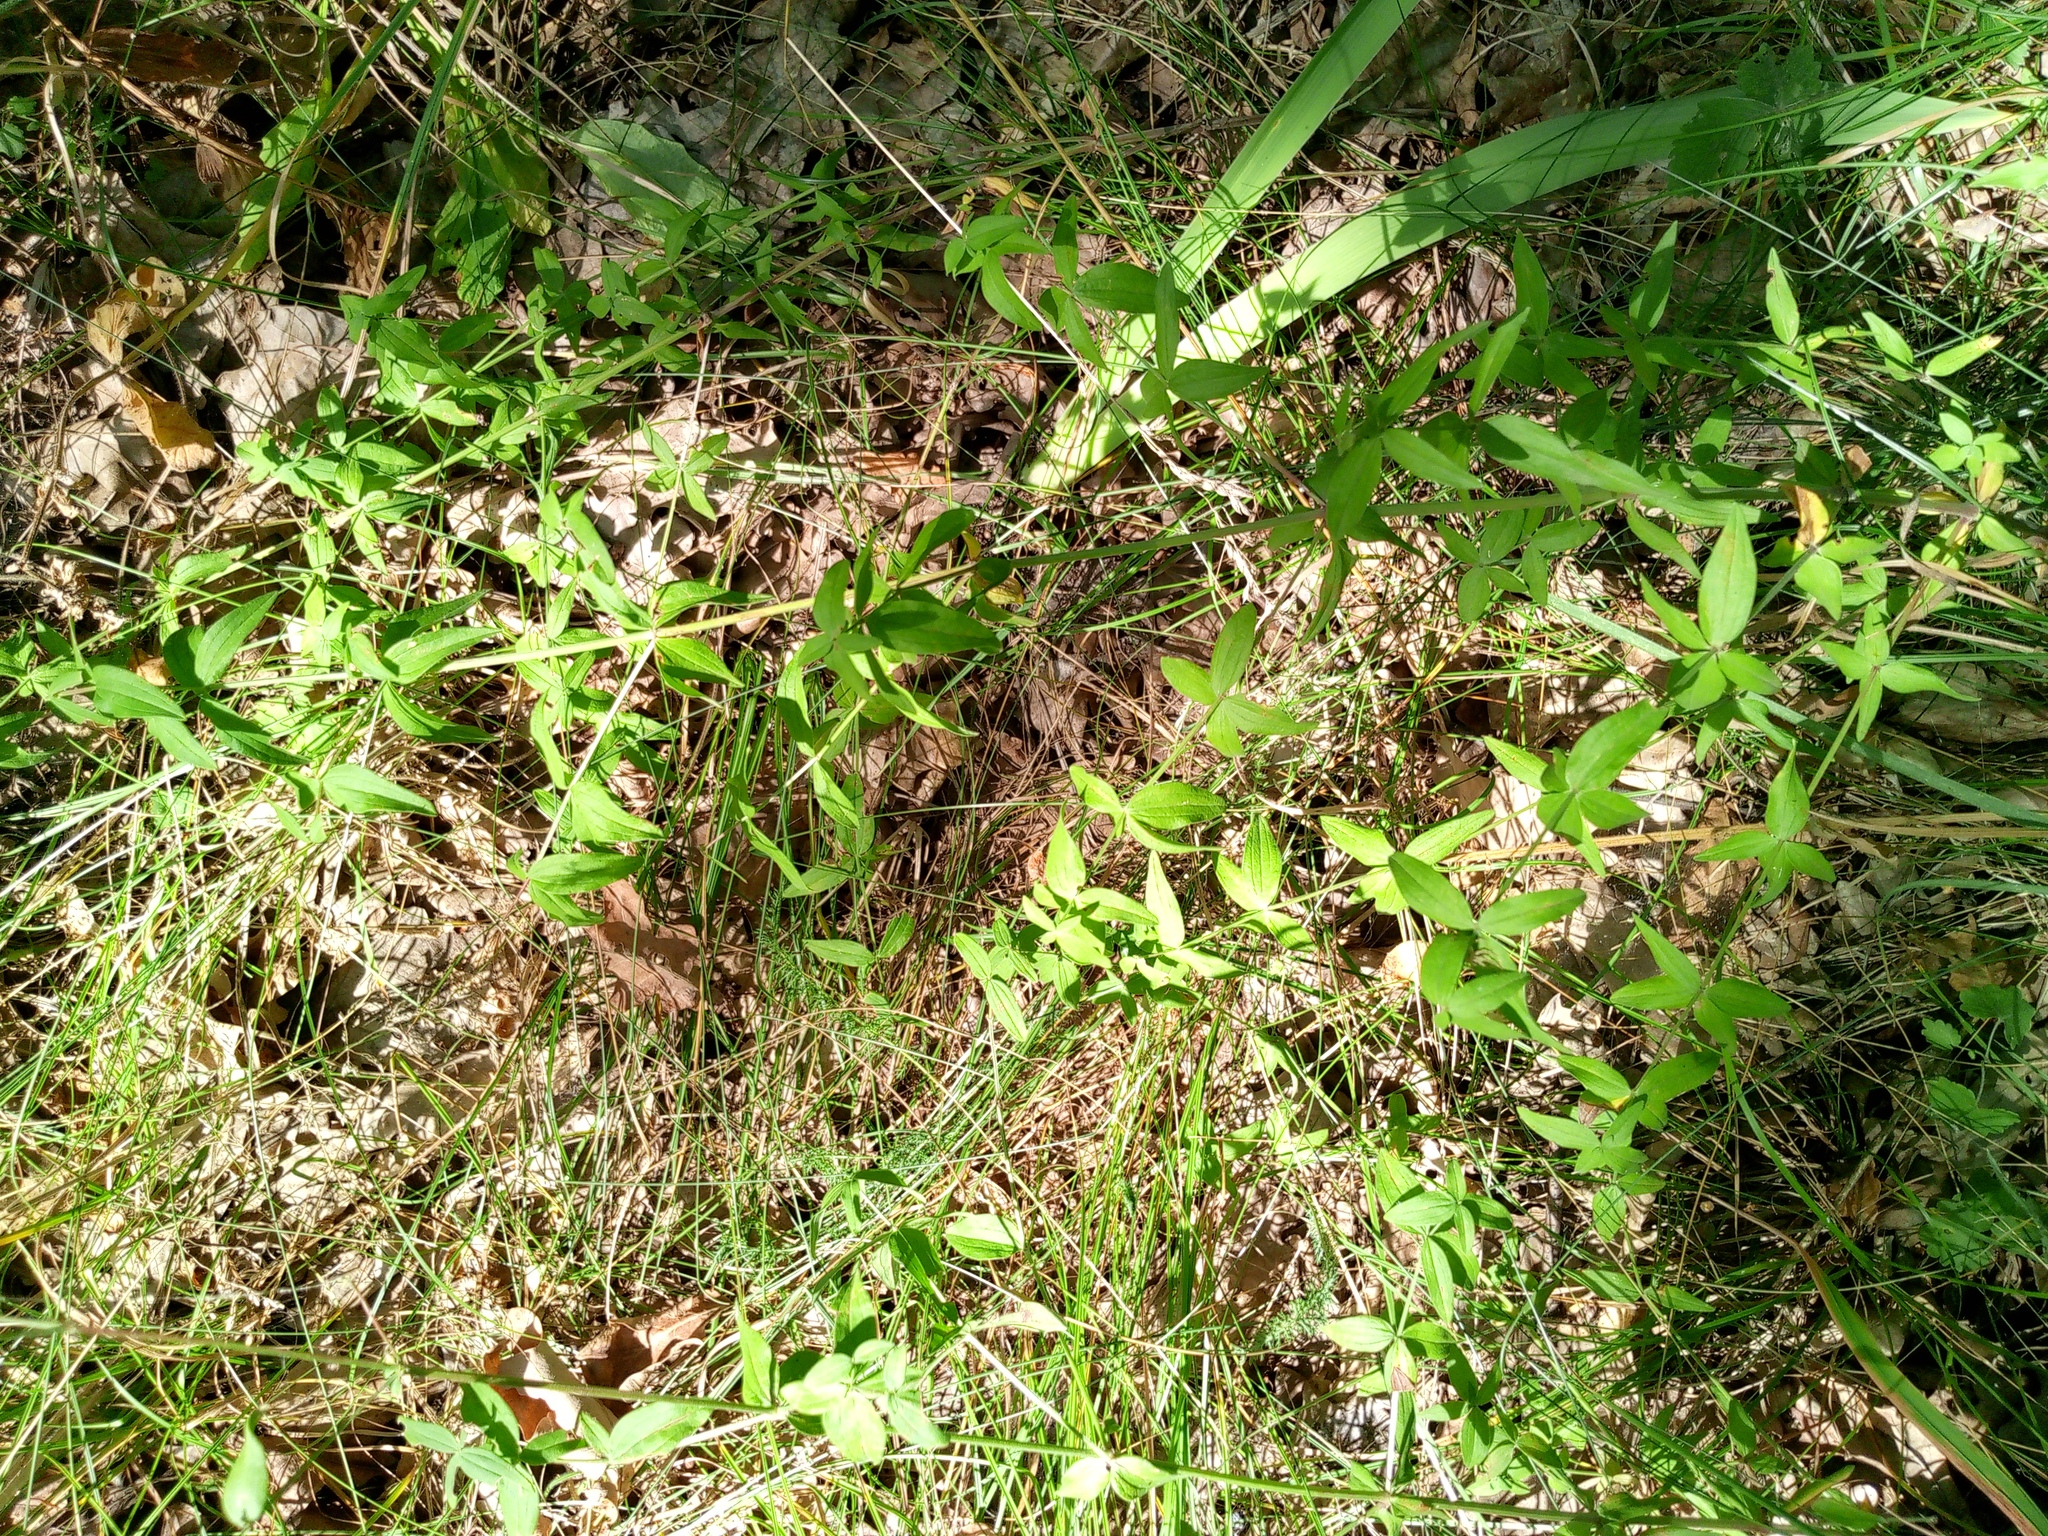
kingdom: Plantae
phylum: Tracheophyta
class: Magnoliopsida
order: Gentianales
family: Rubiaceae
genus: Galium
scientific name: Galium rubioides
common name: European bedstraw
